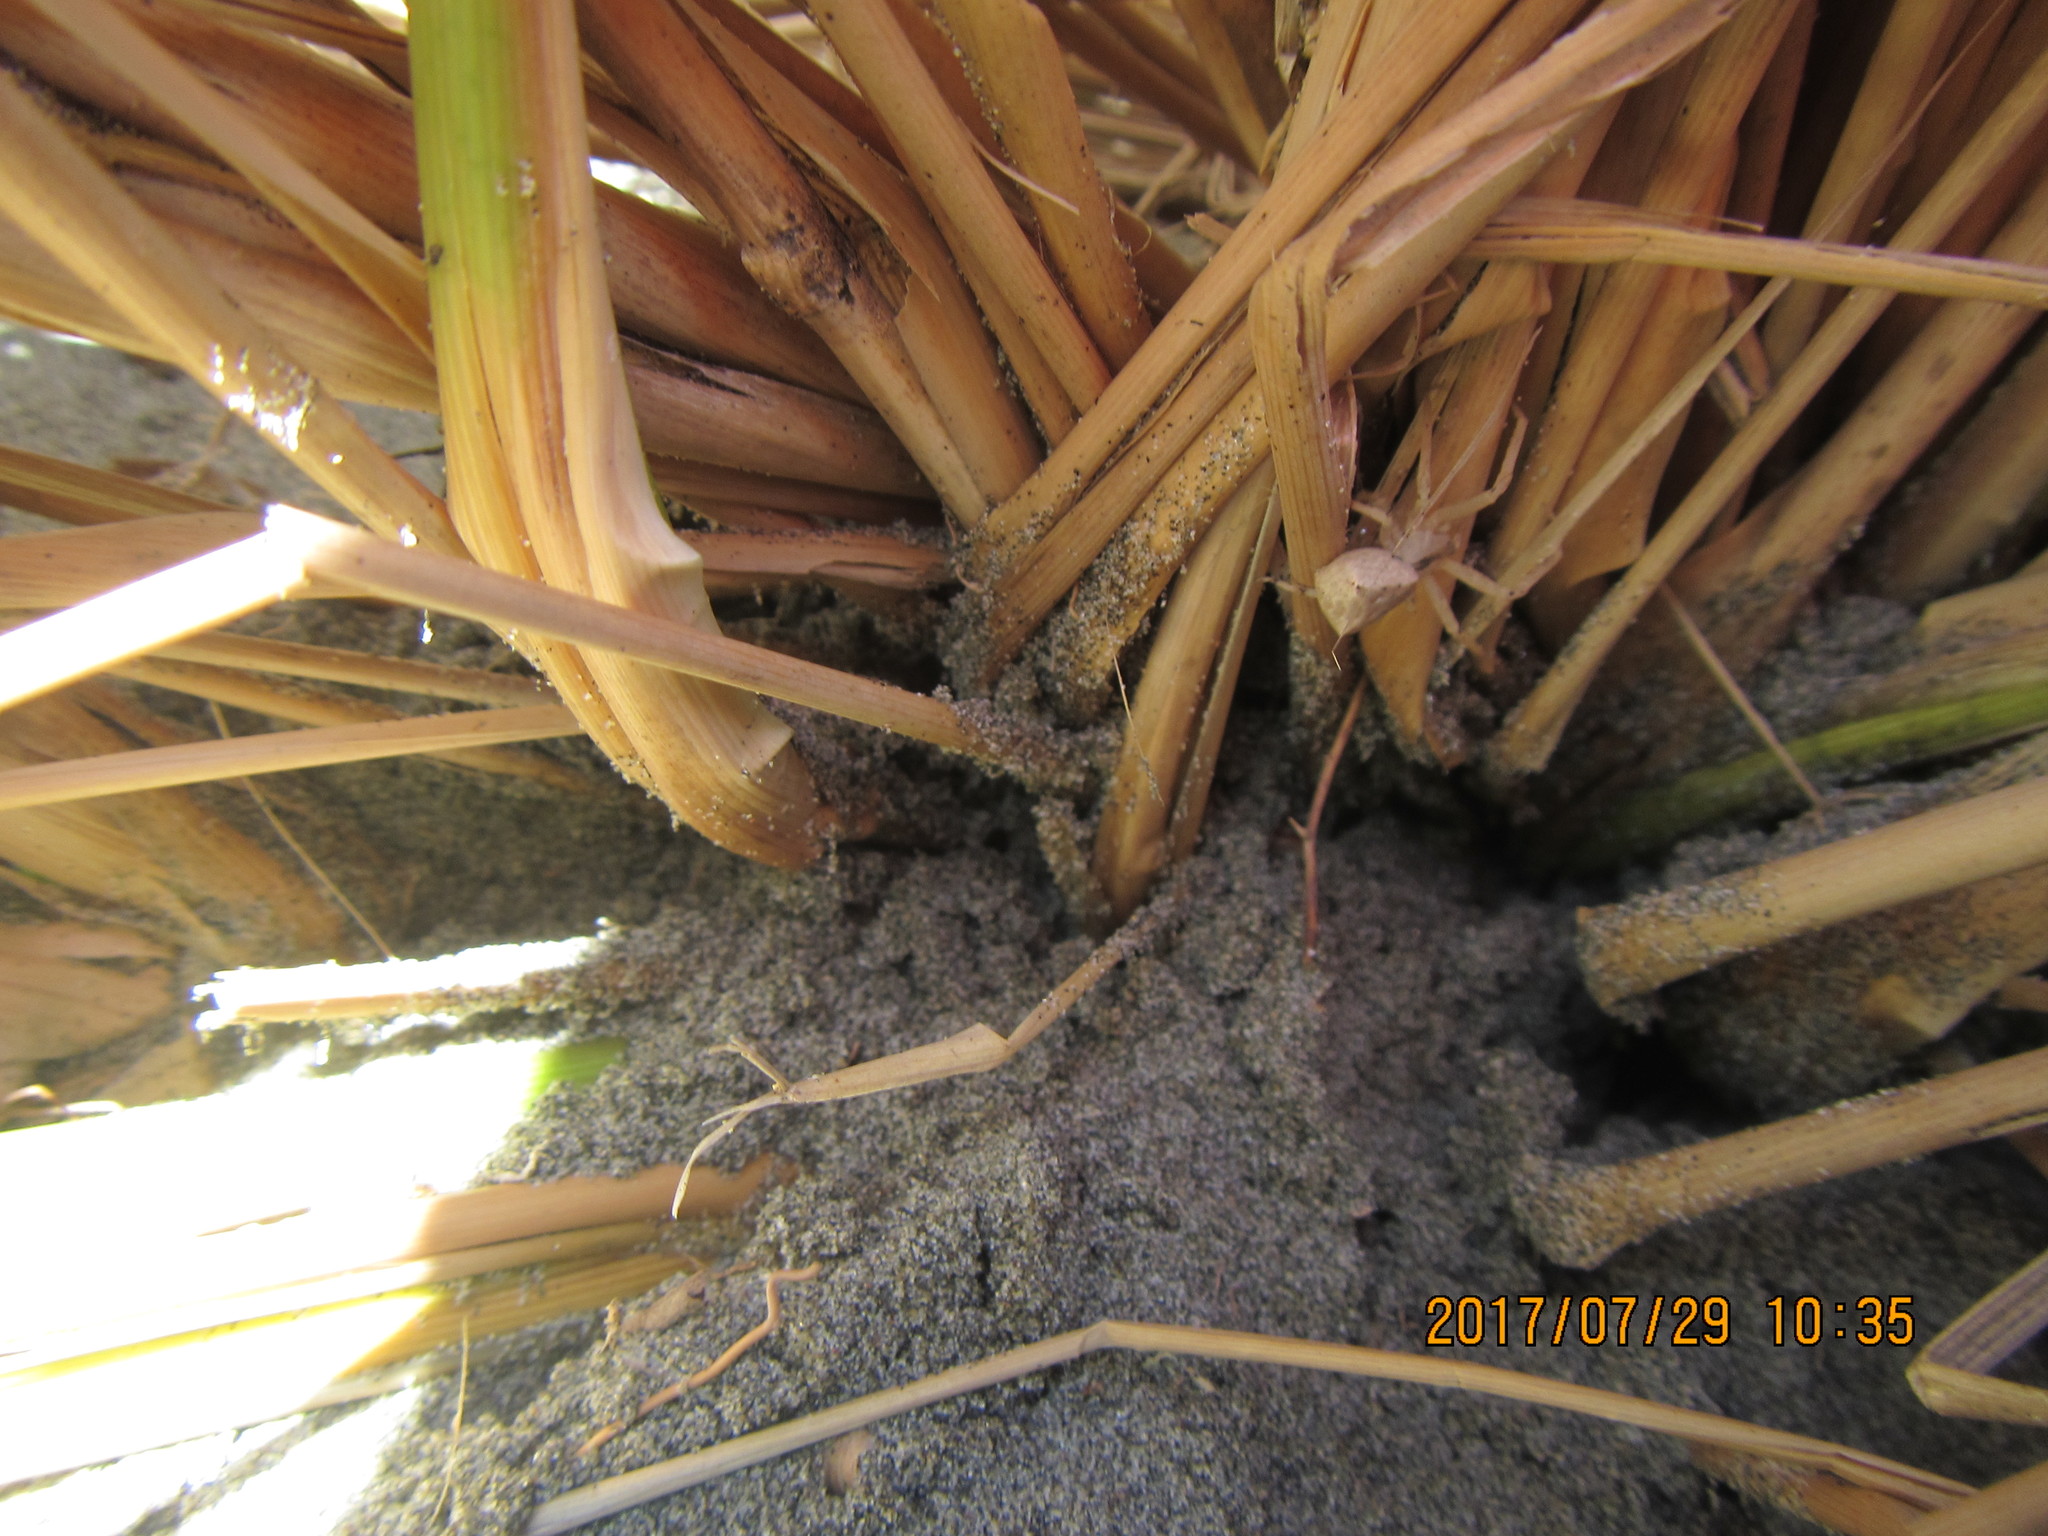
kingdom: Animalia
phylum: Arthropoda
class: Arachnida
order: Araneae
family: Thomisidae
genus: Sidymella
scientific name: Sidymella trapezia
